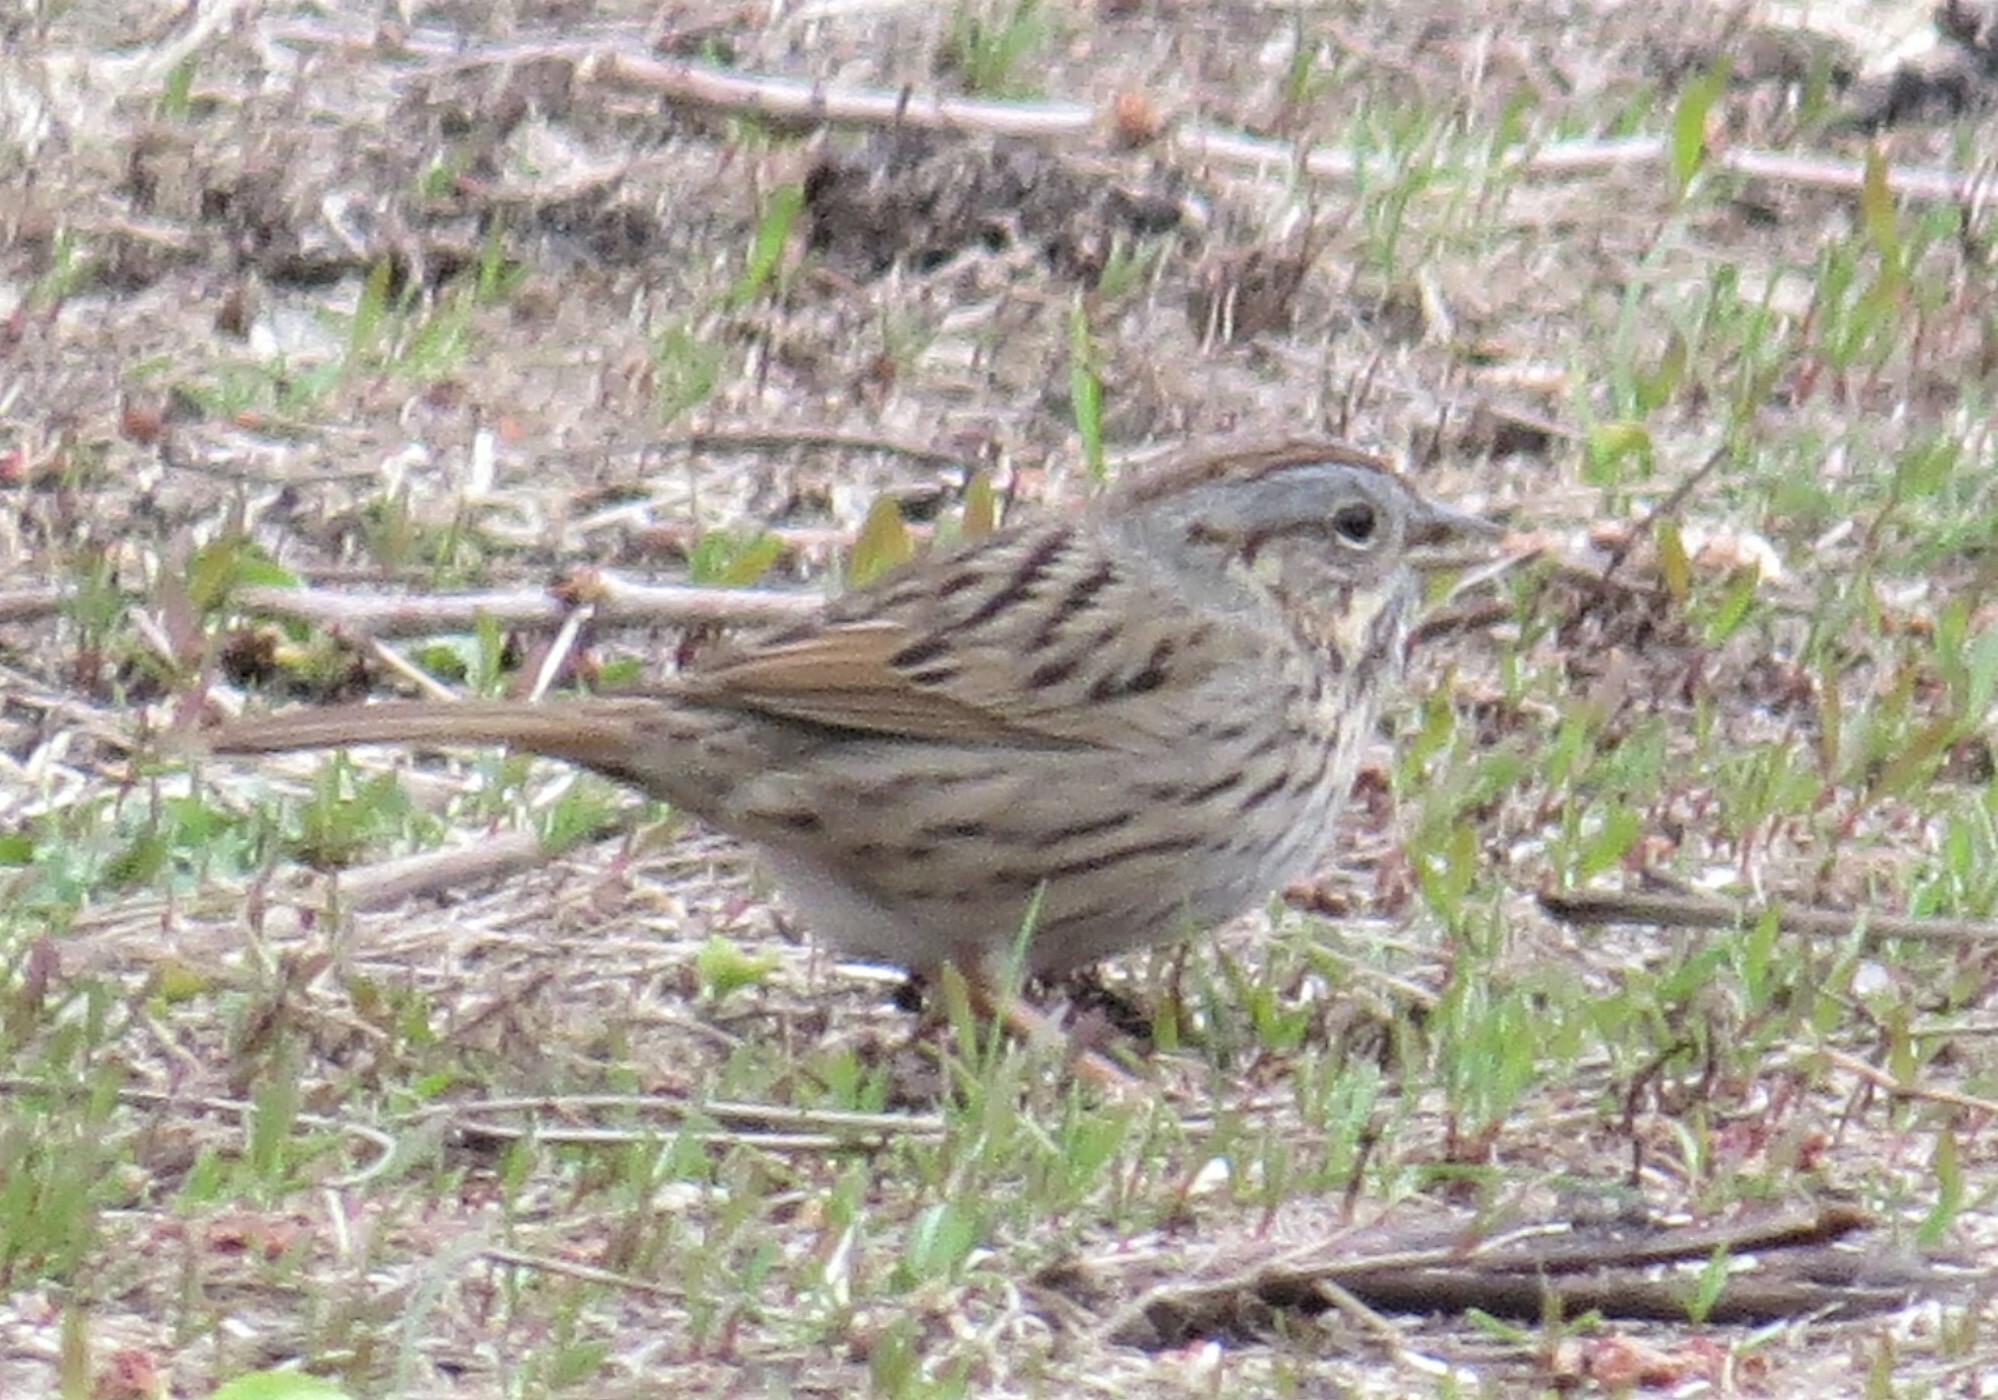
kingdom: Animalia
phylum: Chordata
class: Aves
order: Passeriformes
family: Passerellidae
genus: Melospiza
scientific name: Melospiza lincolnii
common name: Lincoln's sparrow
